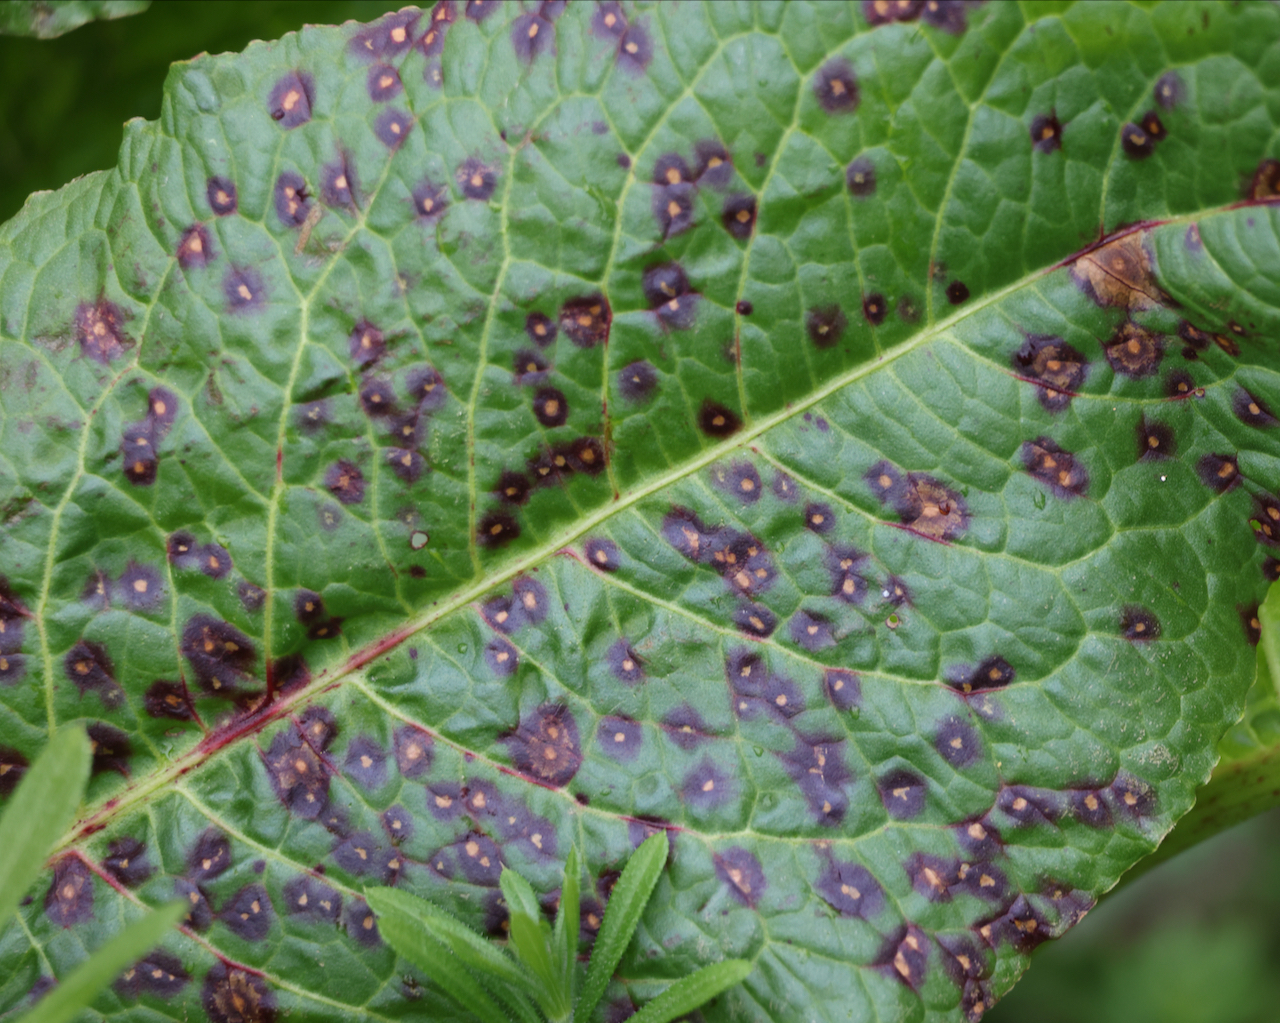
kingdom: Fungi
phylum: Ascomycota
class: Dothideomycetes
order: Mycosphaerellales
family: Mycosphaerellaceae
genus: Ramularia
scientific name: Ramularia rubella
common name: Red dock spot
